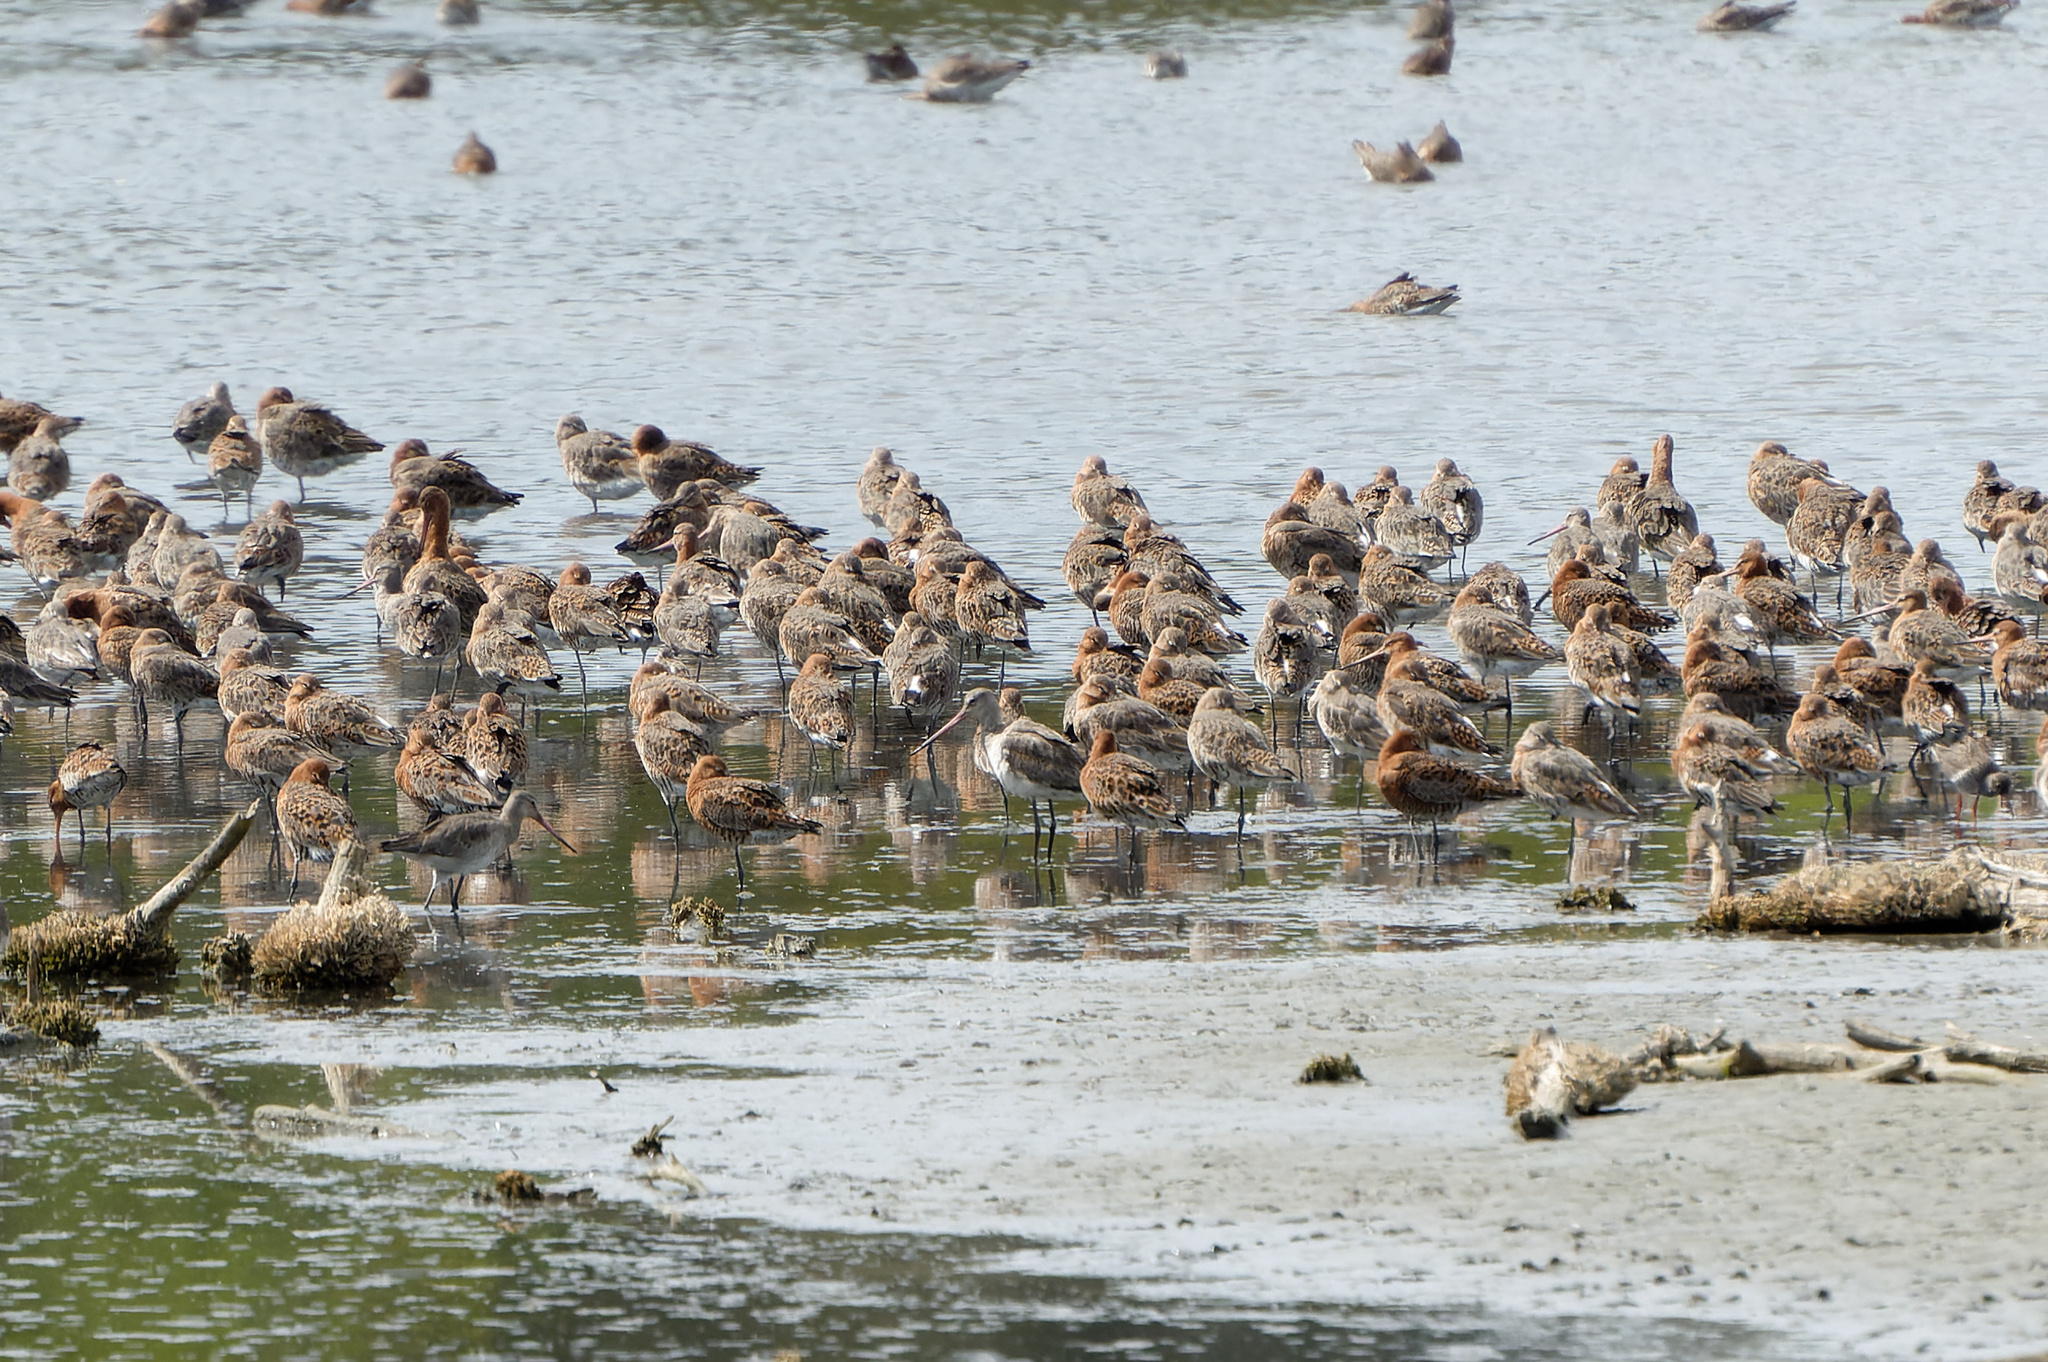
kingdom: Animalia
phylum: Chordata
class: Aves
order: Charadriiformes
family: Scolopacidae
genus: Limosa
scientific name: Limosa limosa
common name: Black-tailed godwit
